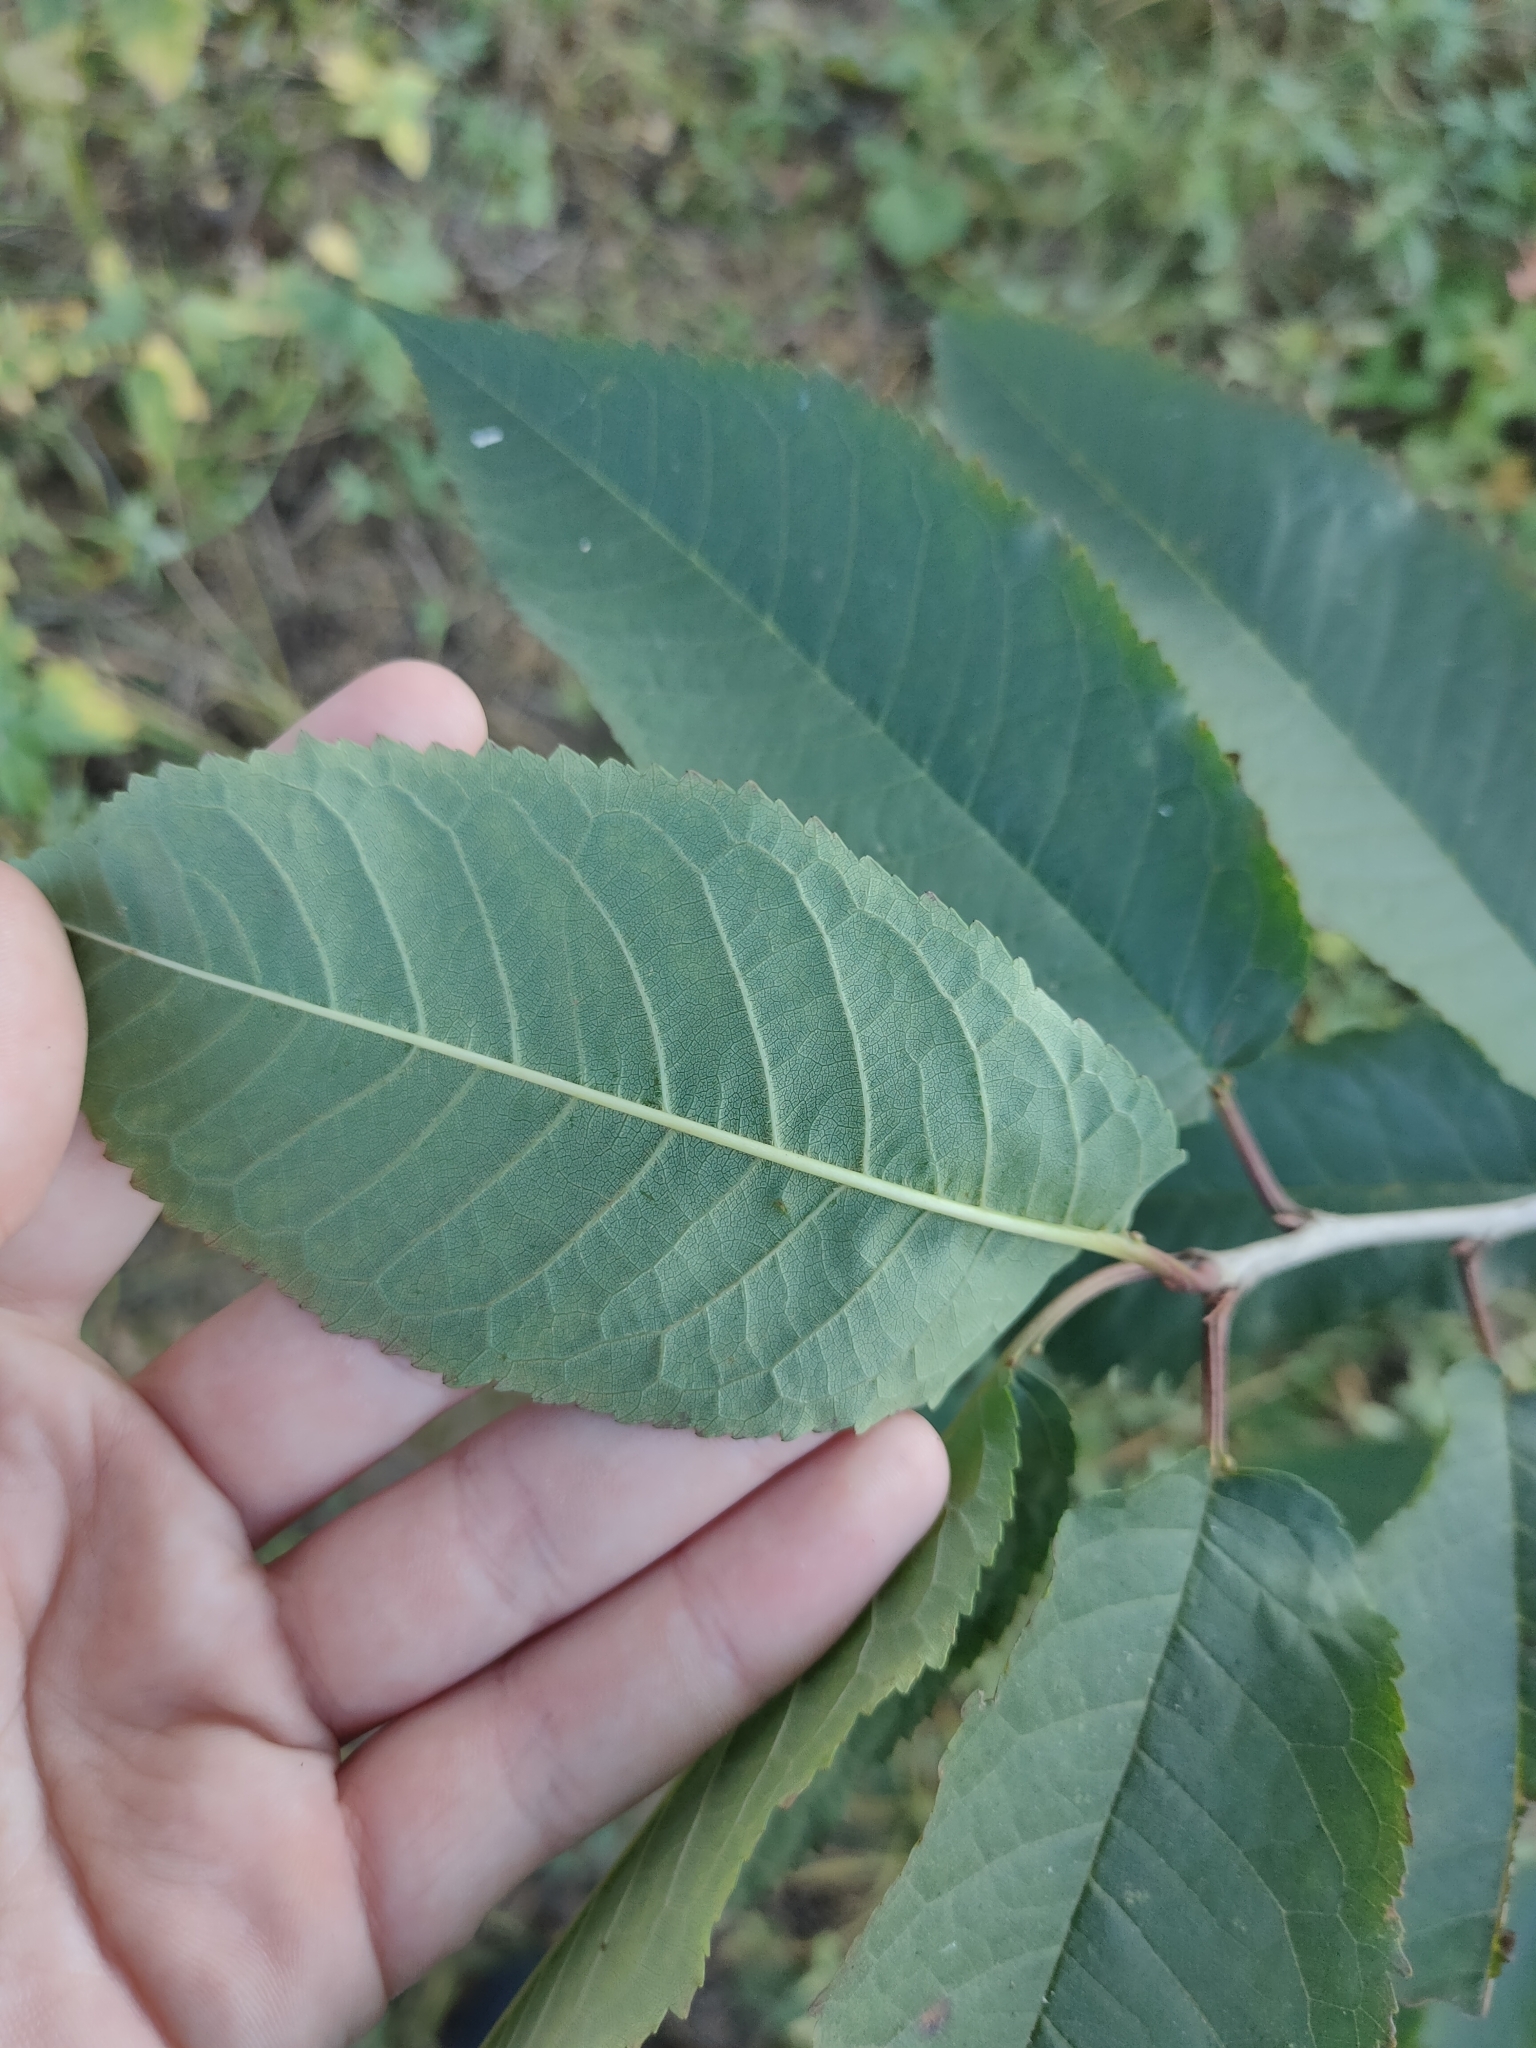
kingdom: Plantae
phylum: Tracheophyta
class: Magnoliopsida
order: Rosales
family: Rosaceae
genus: Prunus
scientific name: Prunus avium
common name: Sweet cherry
